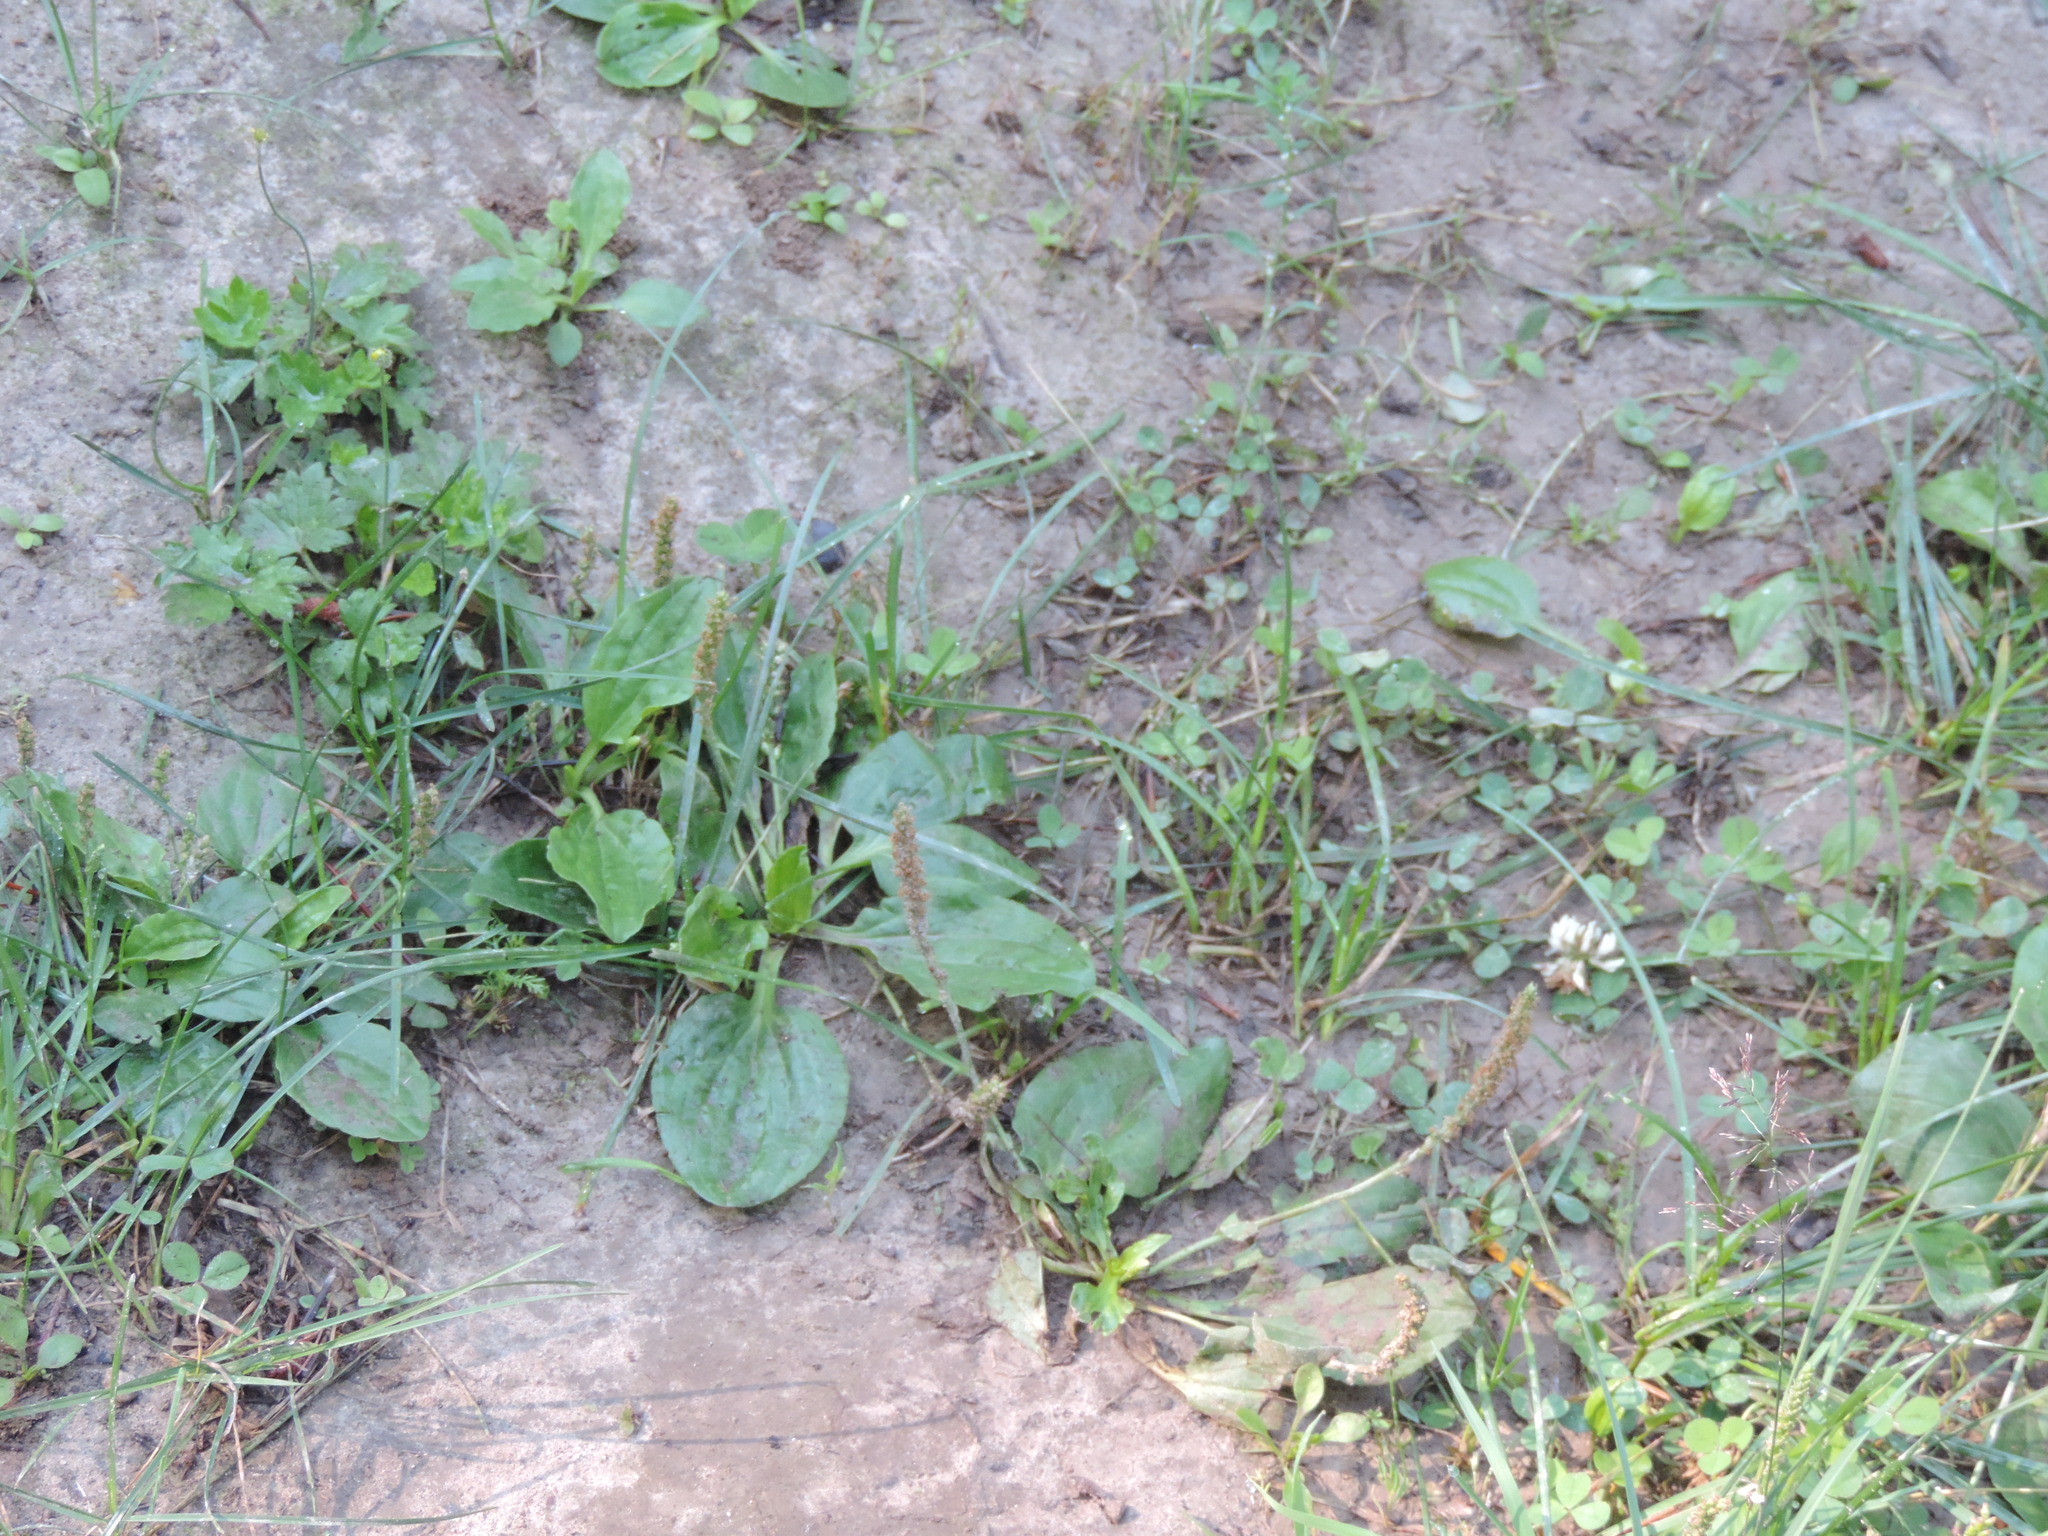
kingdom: Plantae
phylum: Tracheophyta
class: Magnoliopsida
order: Lamiales
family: Plantaginaceae
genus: Plantago
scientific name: Plantago major
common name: Common plantain
